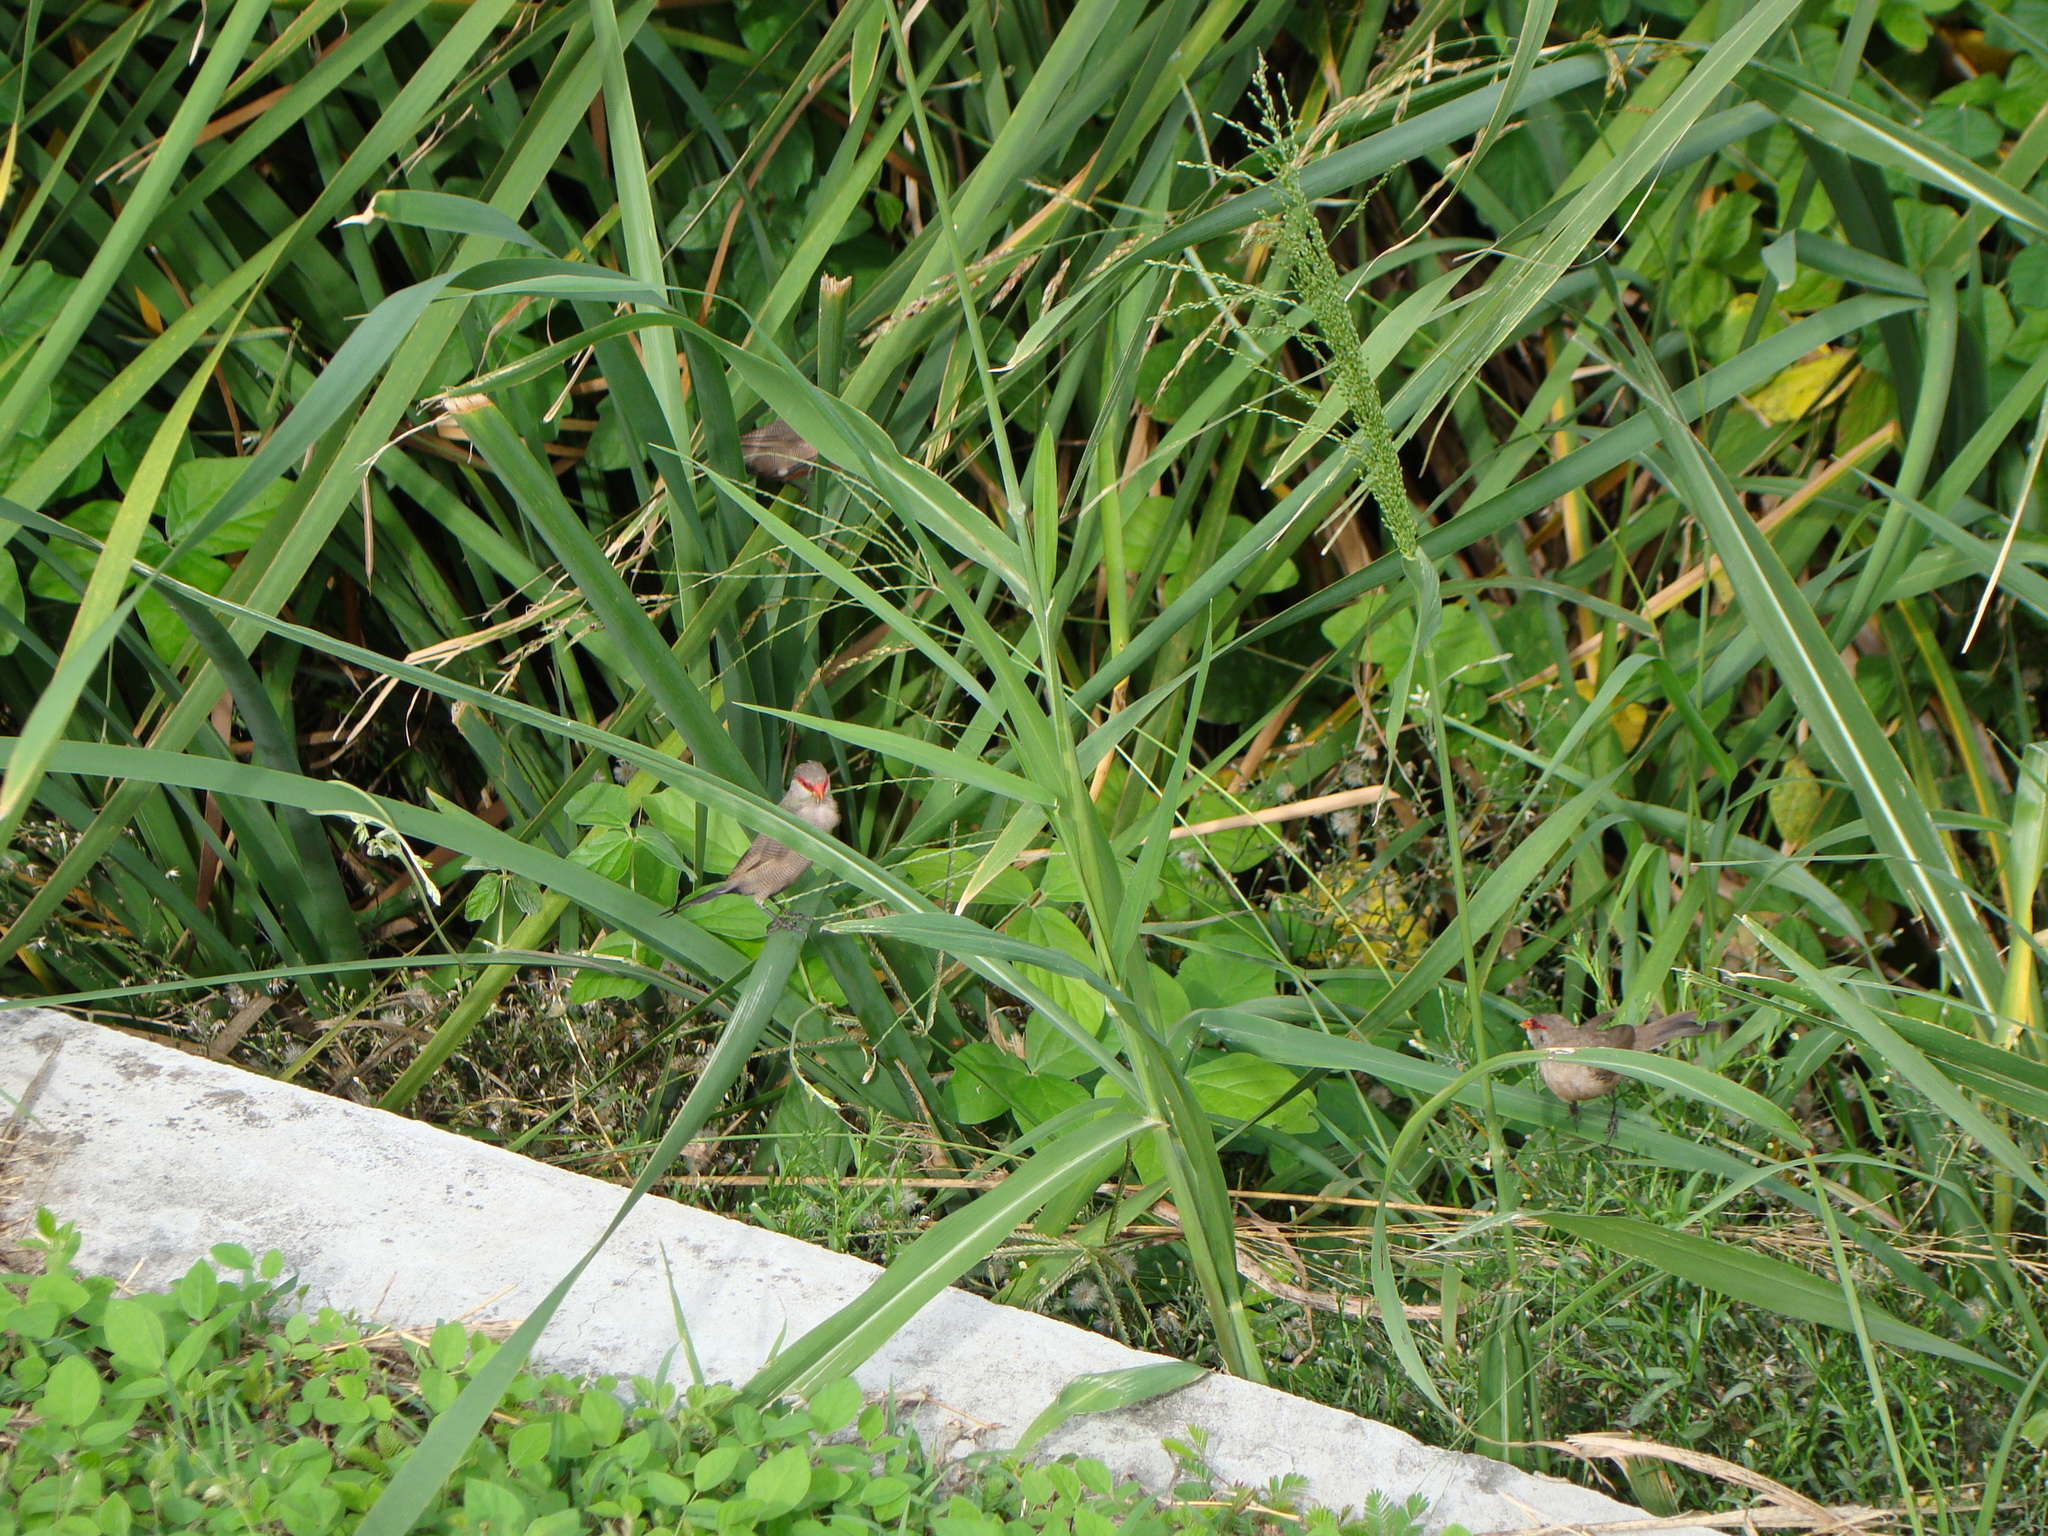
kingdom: Animalia
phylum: Chordata
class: Aves
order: Passeriformes
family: Estrildidae
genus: Estrilda
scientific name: Estrilda astrild
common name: Common waxbill
